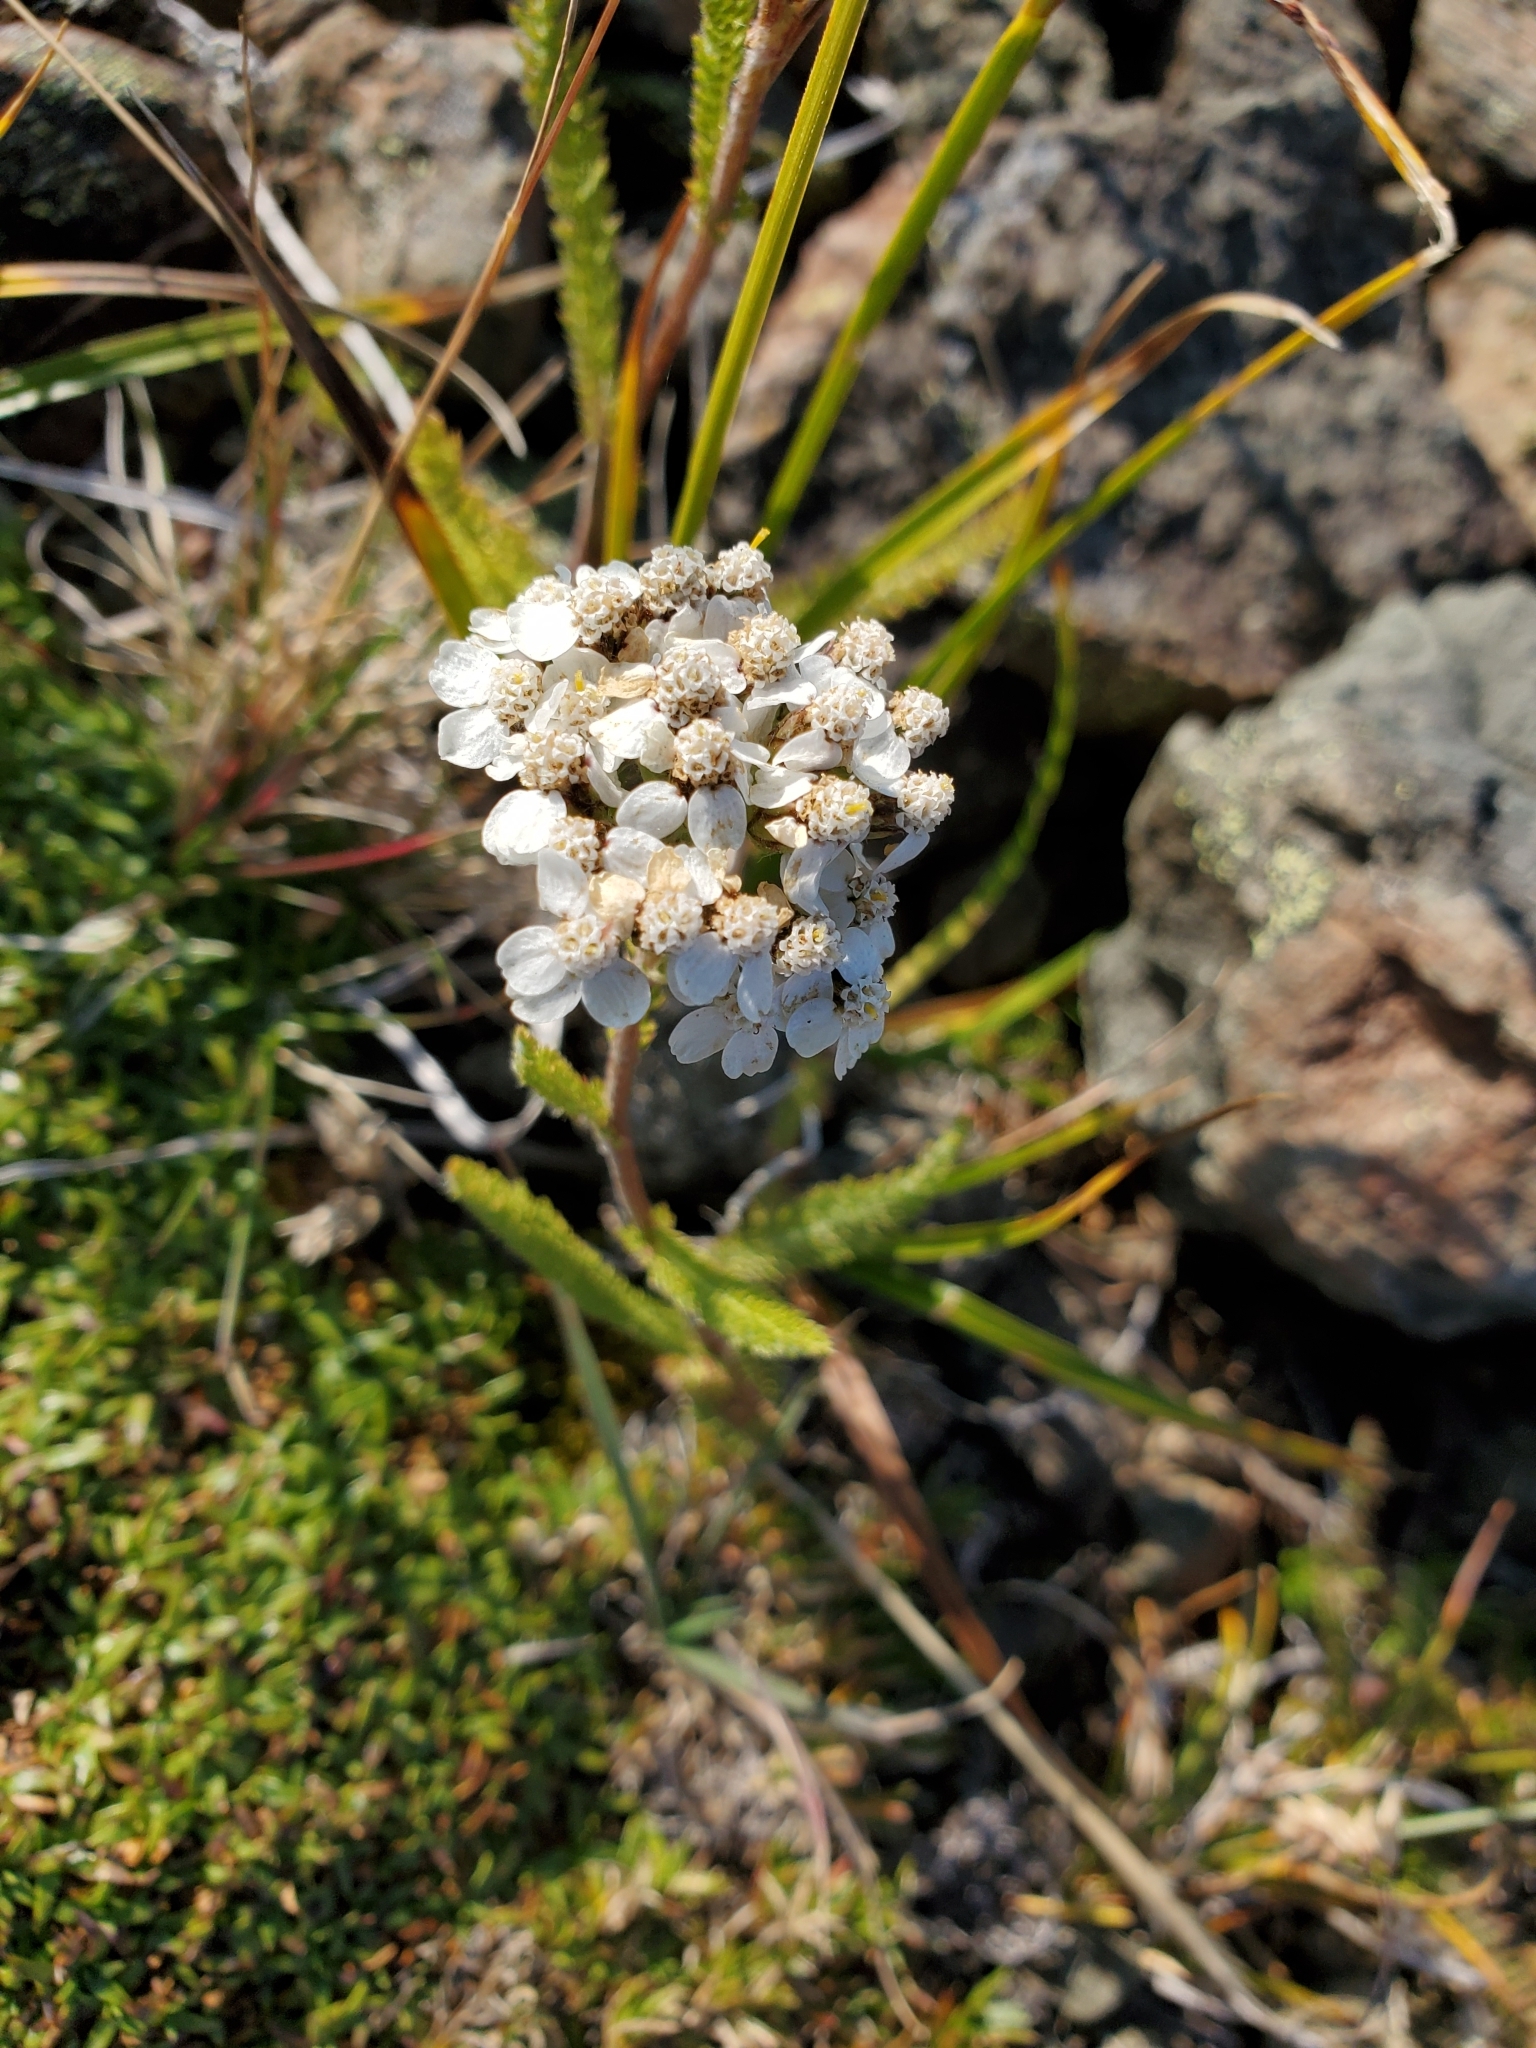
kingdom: Plantae
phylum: Tracheophyta
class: Magnoliopsida
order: Asterales
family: Asteraceae
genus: Achillea
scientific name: Achillea millefolium
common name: Yarrow
